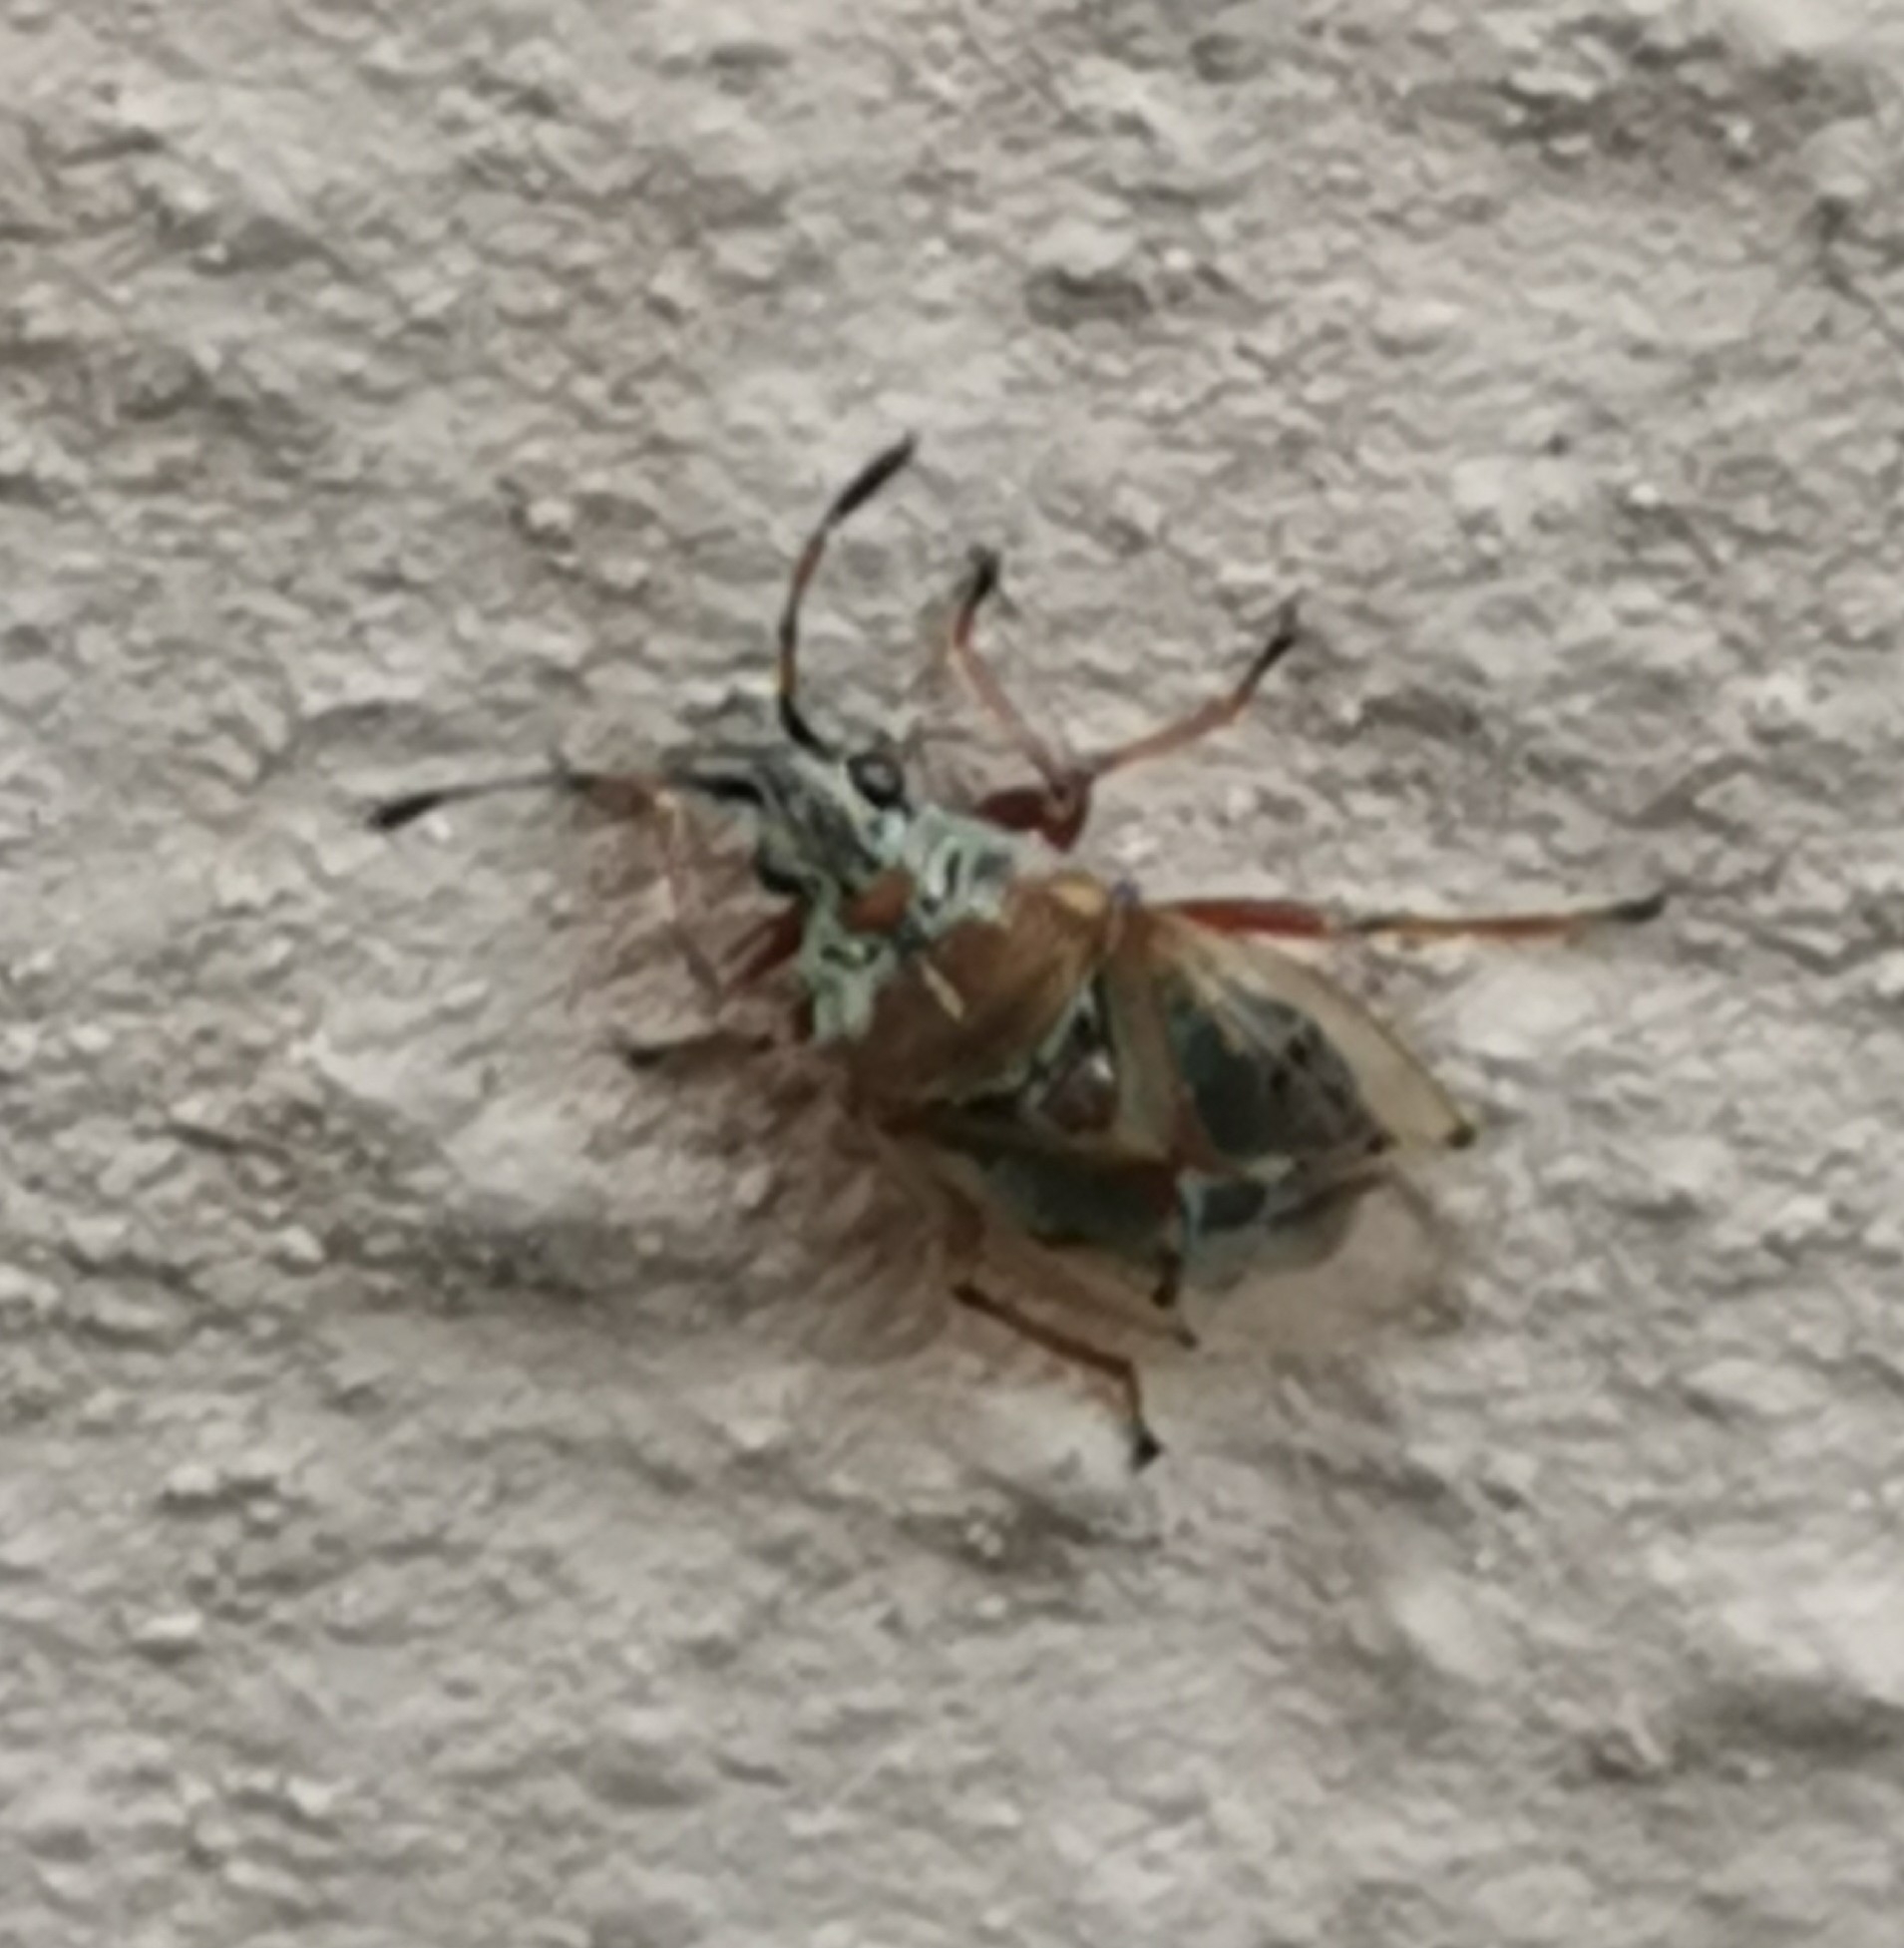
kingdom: Animalia
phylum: Arthropoda
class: Insecta
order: Hemiptera
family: Lygaeidae
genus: Kleidocerys
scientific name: Kleidocerys resedae
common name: Birch catkin bug
